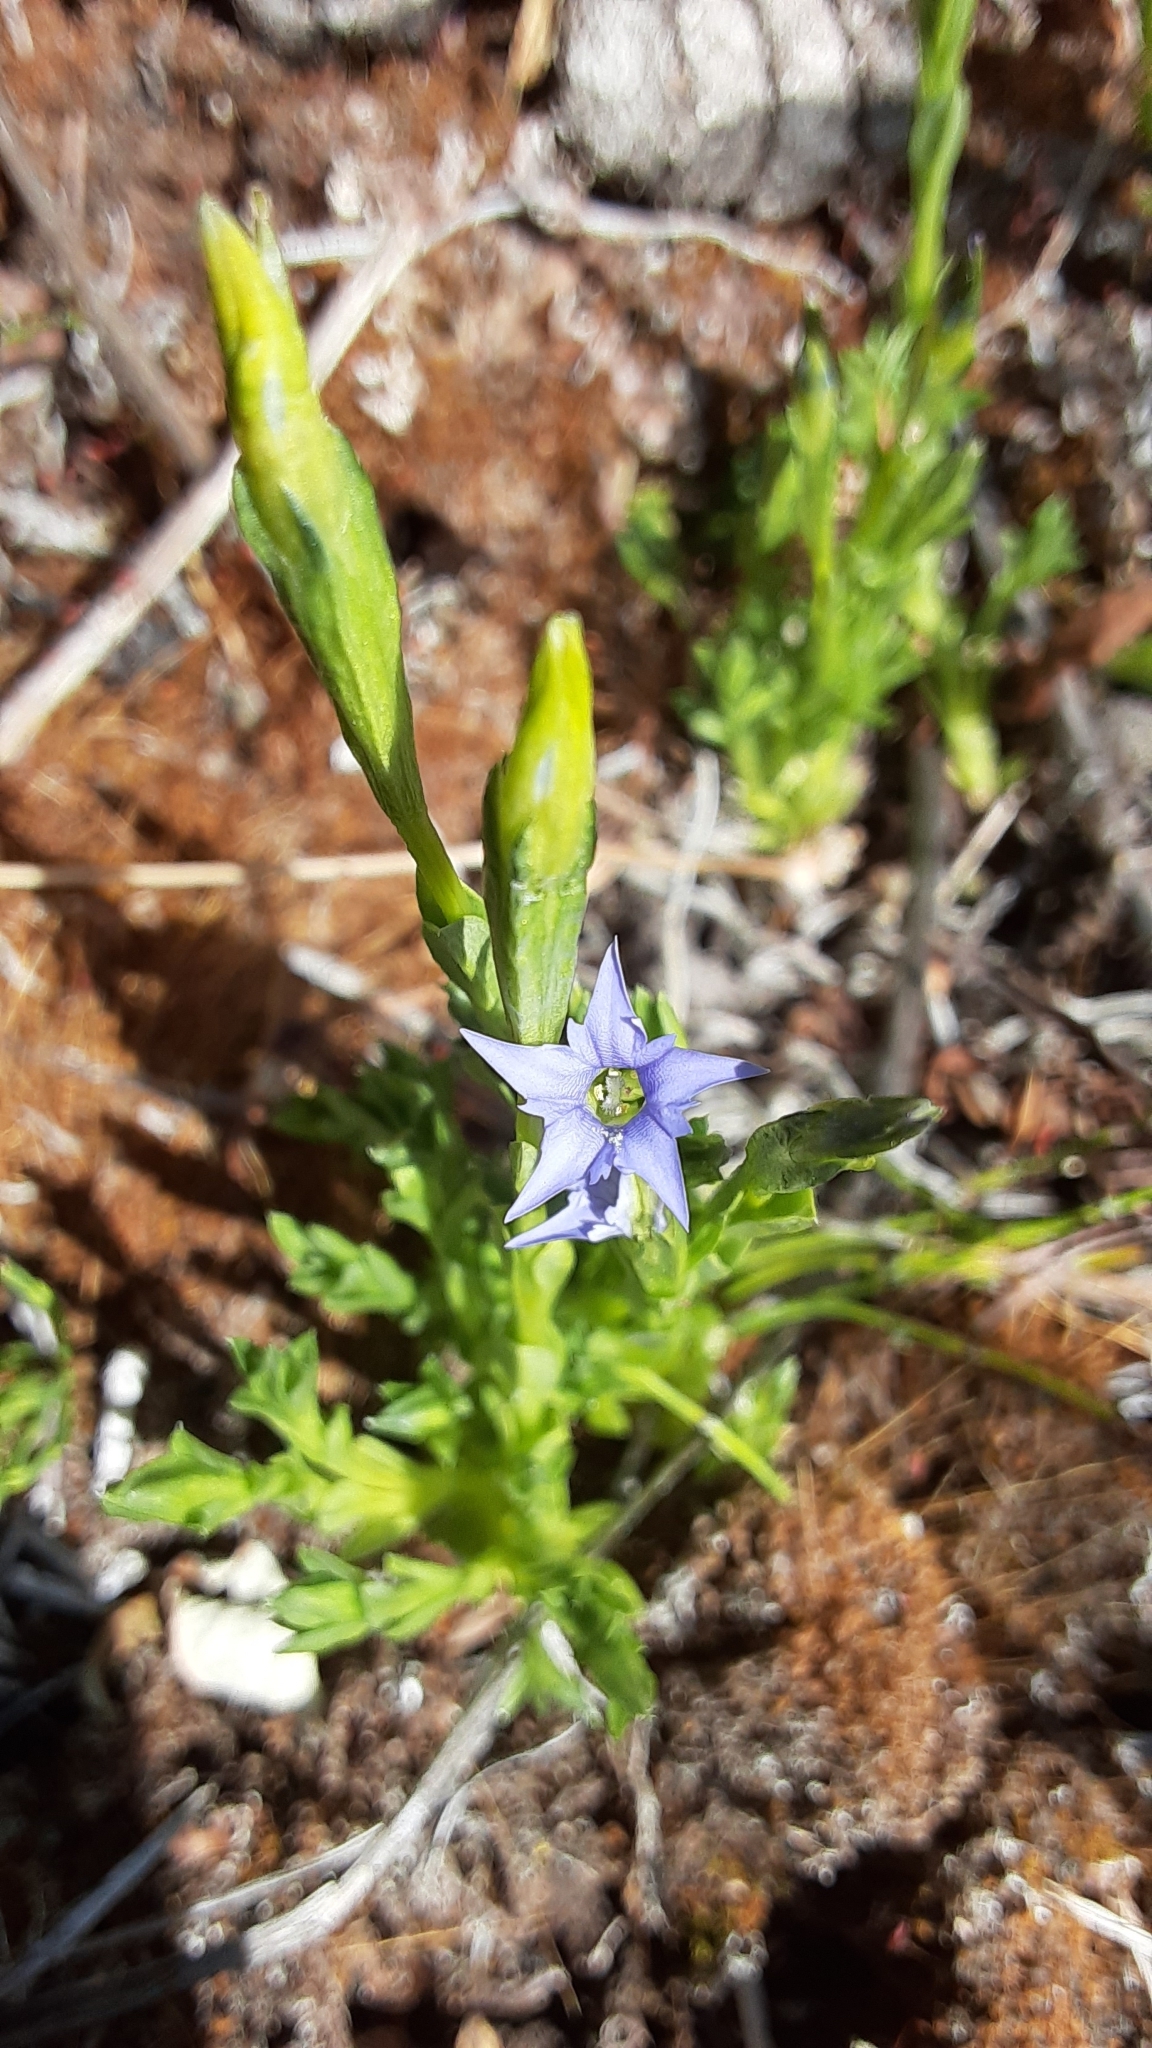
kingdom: Plantae
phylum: Tracheophyta
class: Magnoliopsida
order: Gentianales
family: Gentianaceae
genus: Gentiana
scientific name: Gentiana prostrata
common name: Moss gentian
